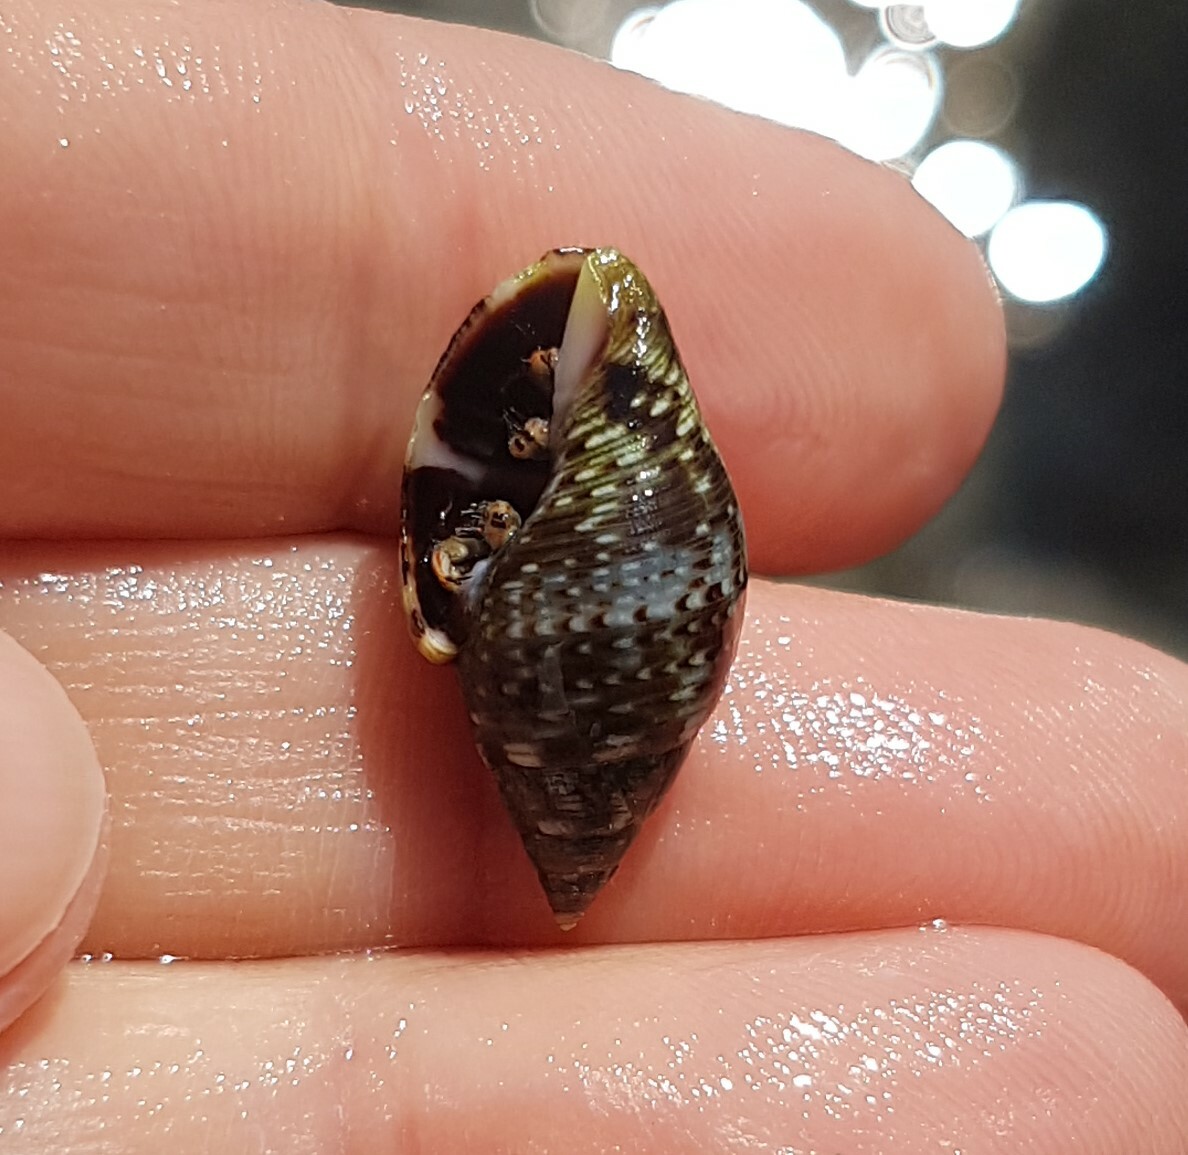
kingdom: Animalia
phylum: Mollusca
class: Gastropoda
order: Neogastropoda
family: Pisaniidae
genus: Pisania
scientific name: Pisania striata
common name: Spotted pisania
